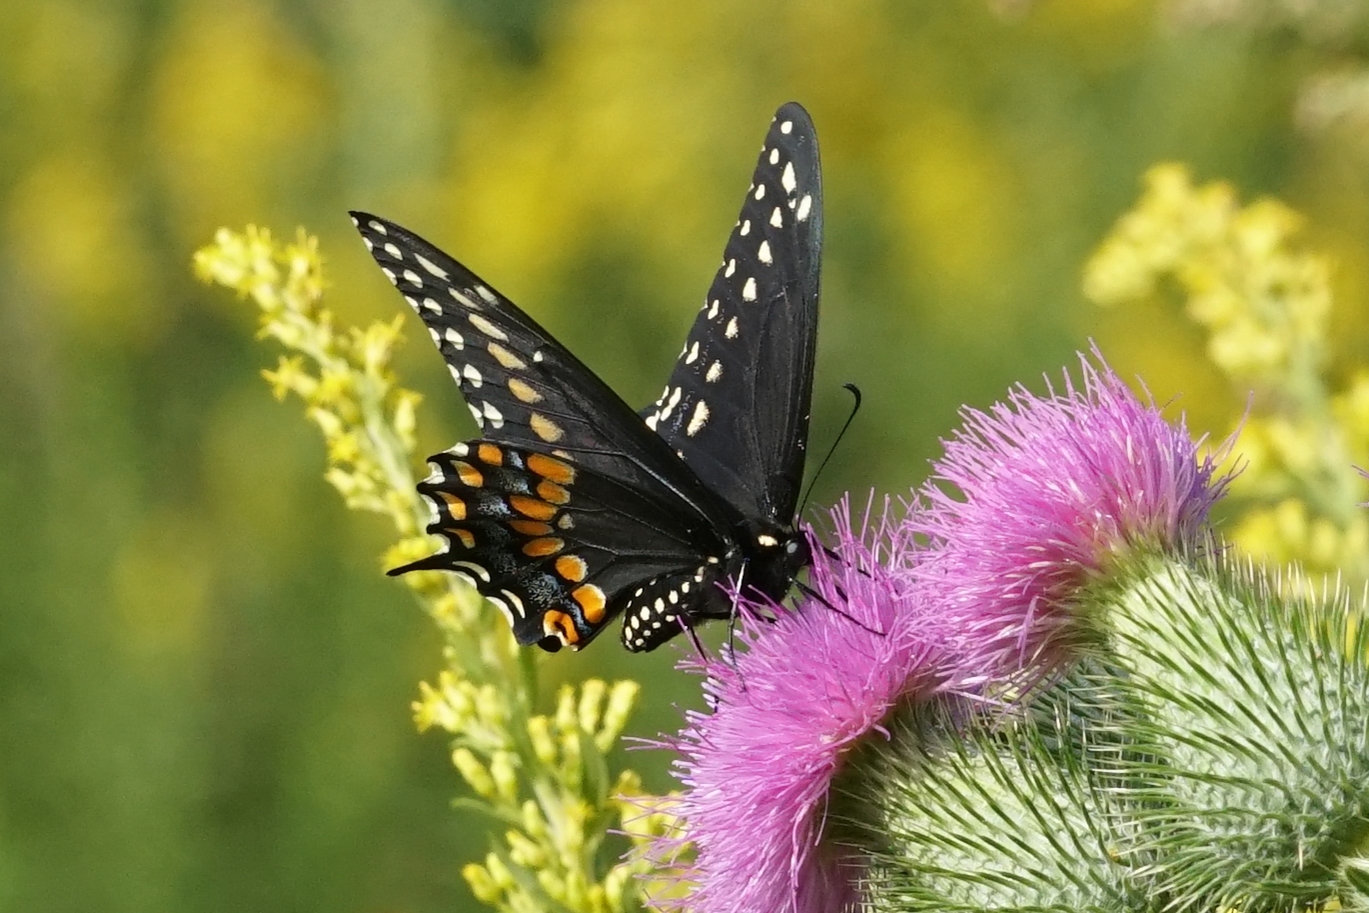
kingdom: Animalia
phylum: Arthropoda
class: Insecta
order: Lepidoptera
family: Papilionidae
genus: Papilio
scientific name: Papilio polyxenes
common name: Black swallowtail
